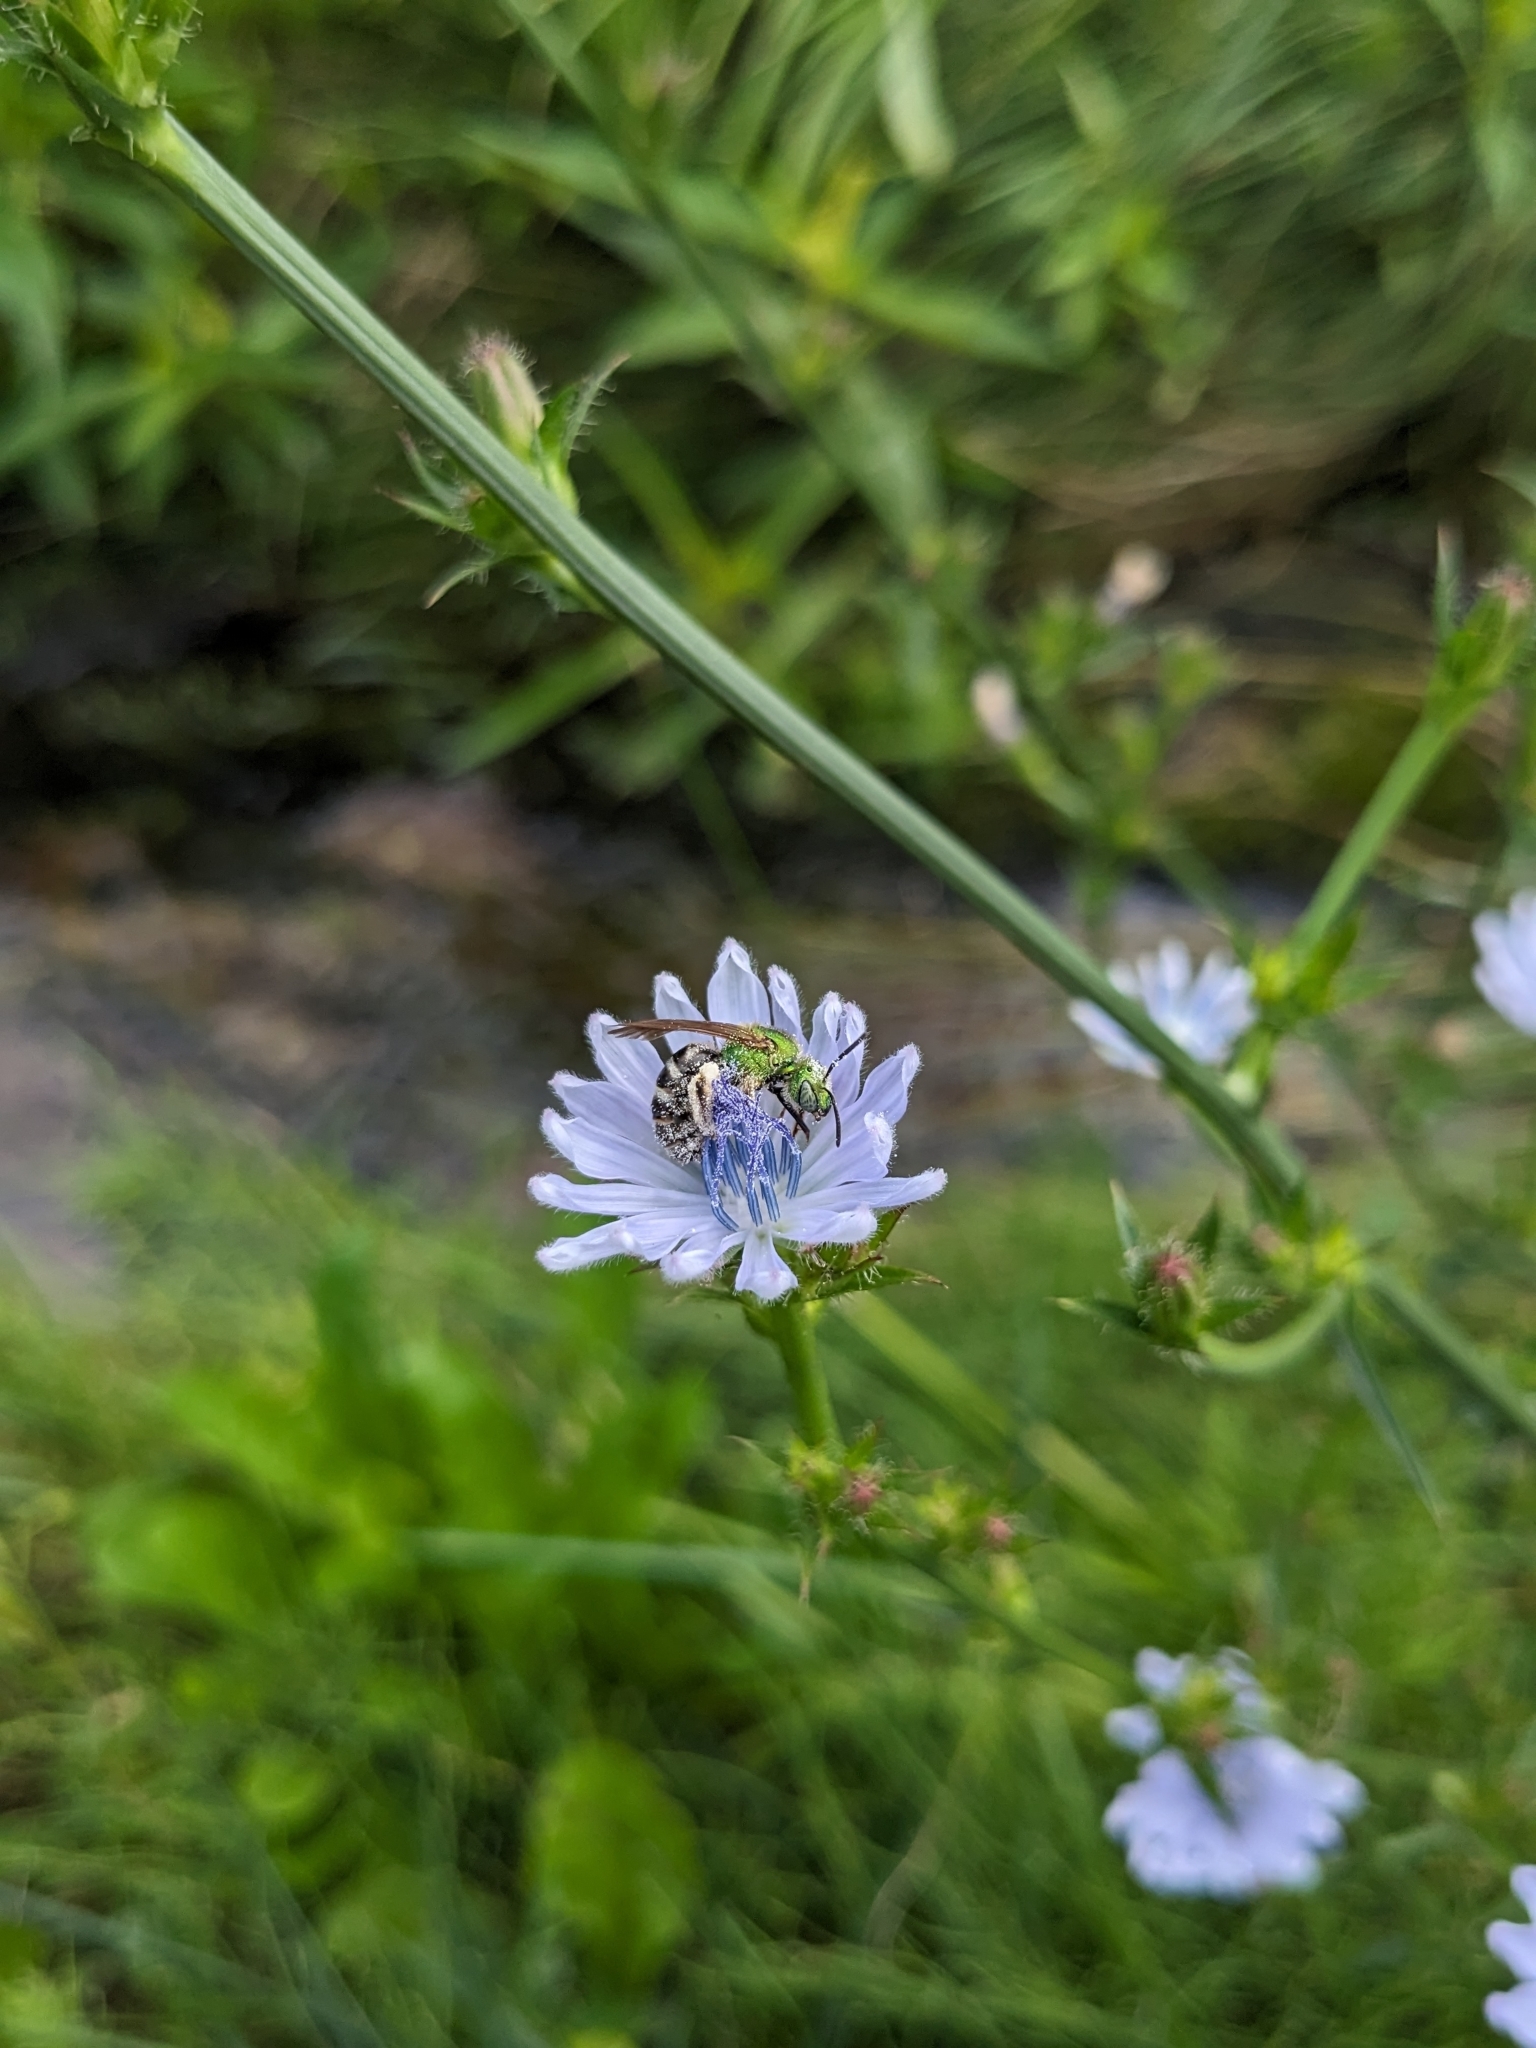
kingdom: Animalia
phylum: Arthropoda
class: Insecta
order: Hymenoptera
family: Halictidae
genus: Agapostemon
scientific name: Agapostemon virescens
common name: Bicolored striped sweat bee
